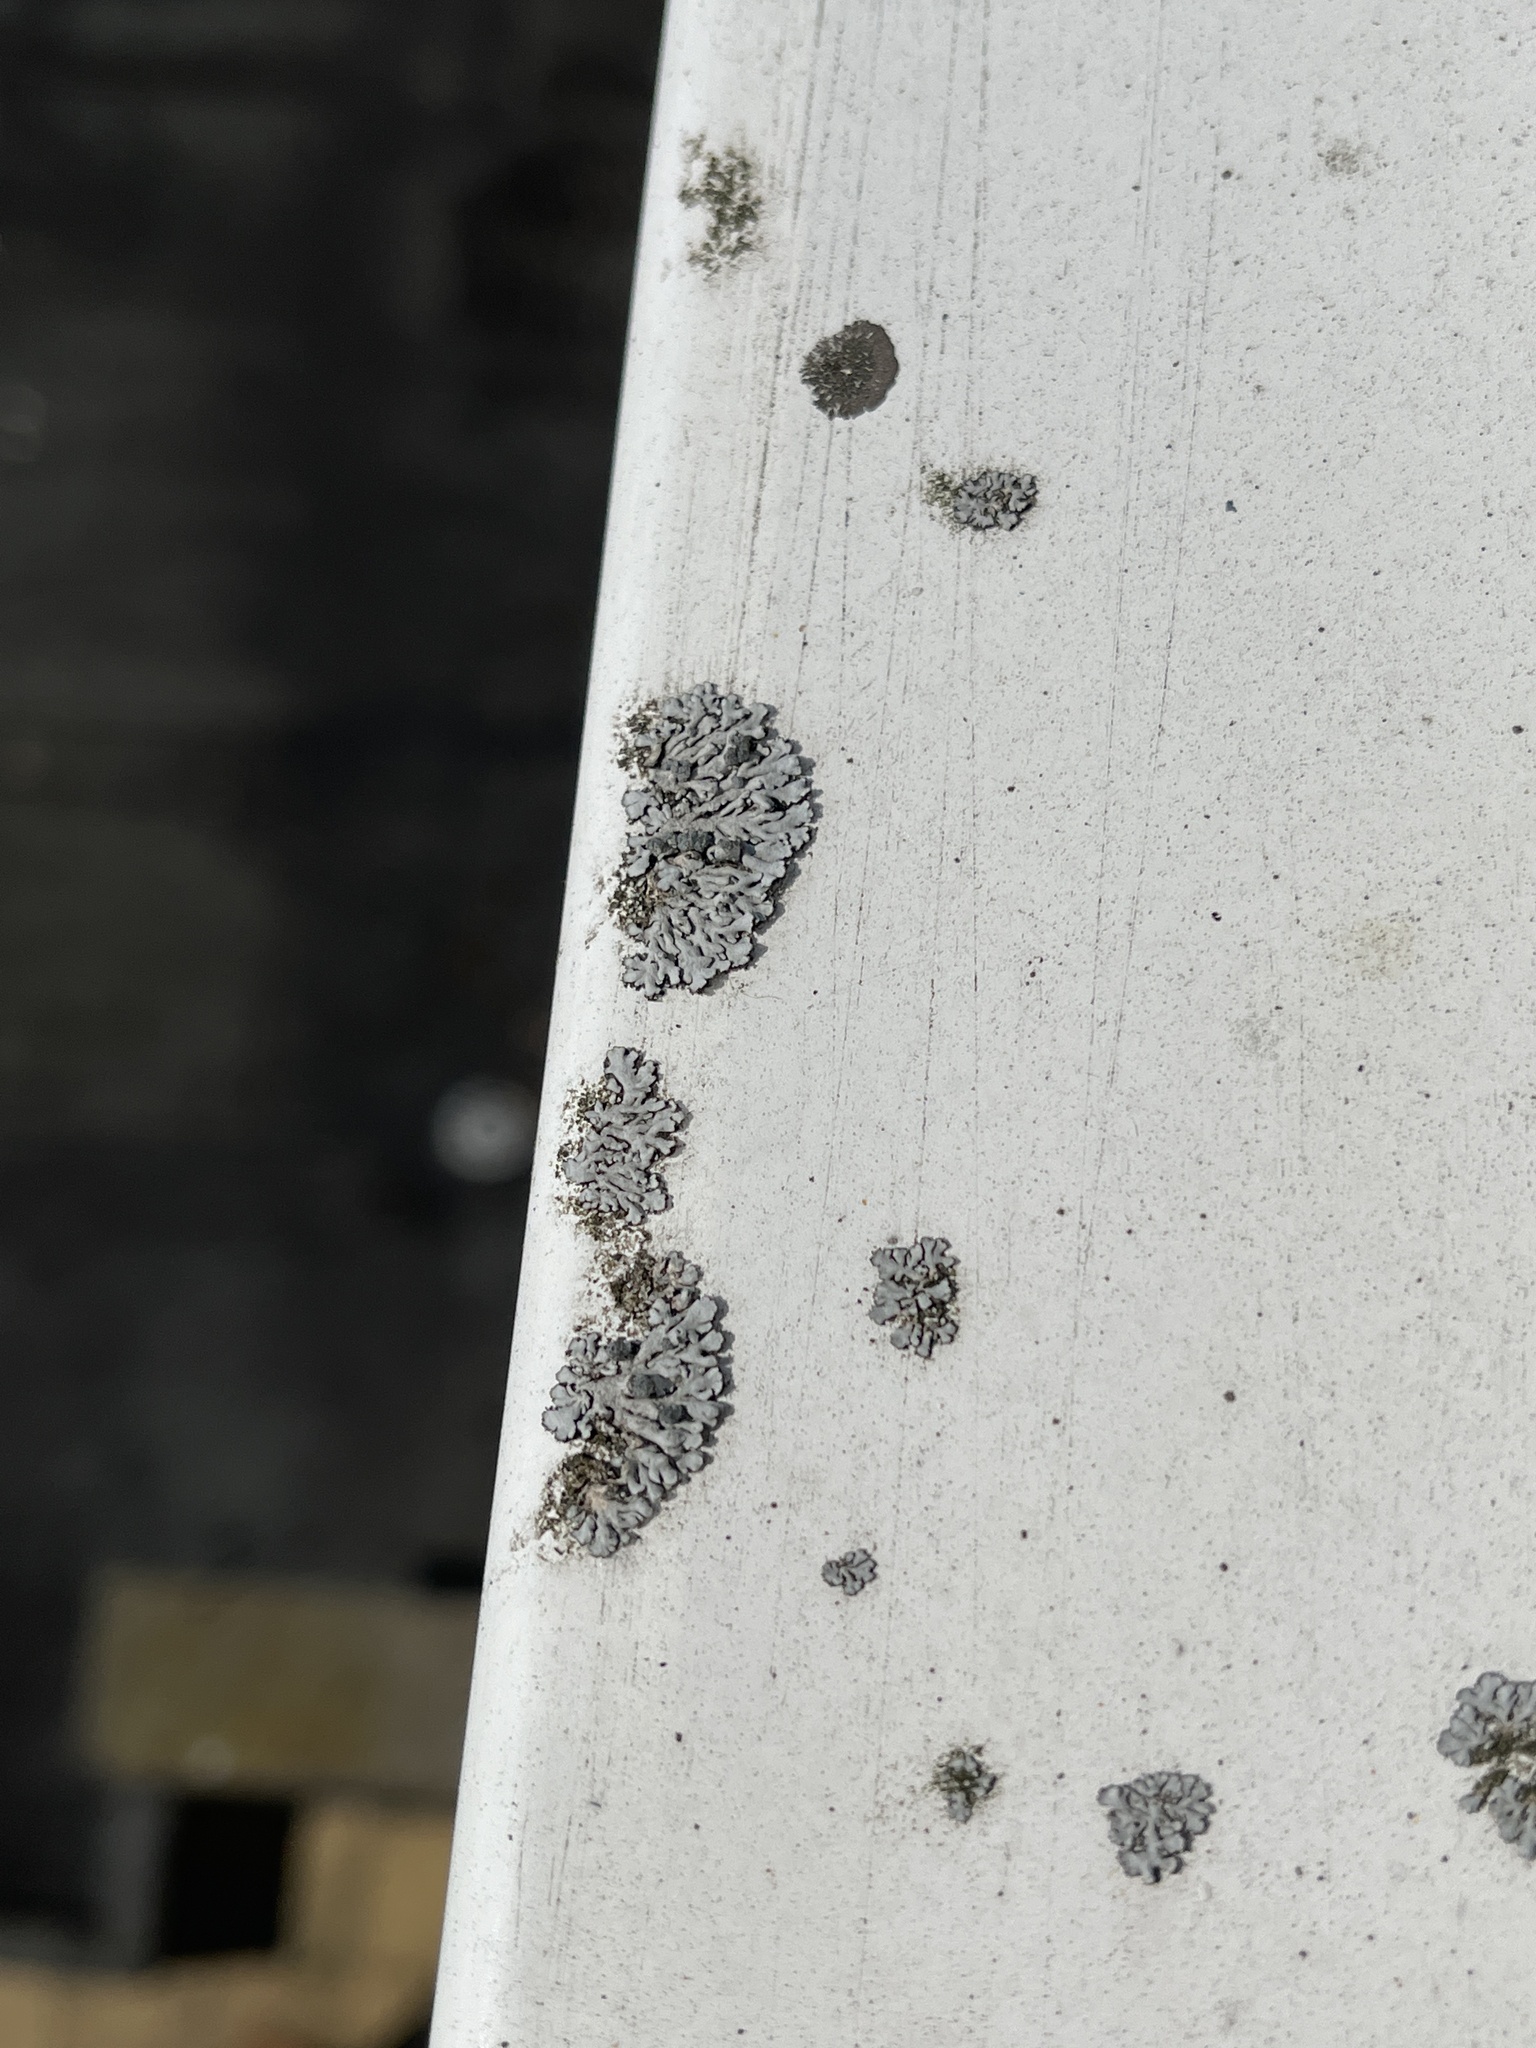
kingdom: Fungi
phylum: Ascomycota
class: Lecanoromycetes
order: Caliciales
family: Physciaceae
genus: Physcia
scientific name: Physcia caesia
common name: Blue-gray rosette lichen
